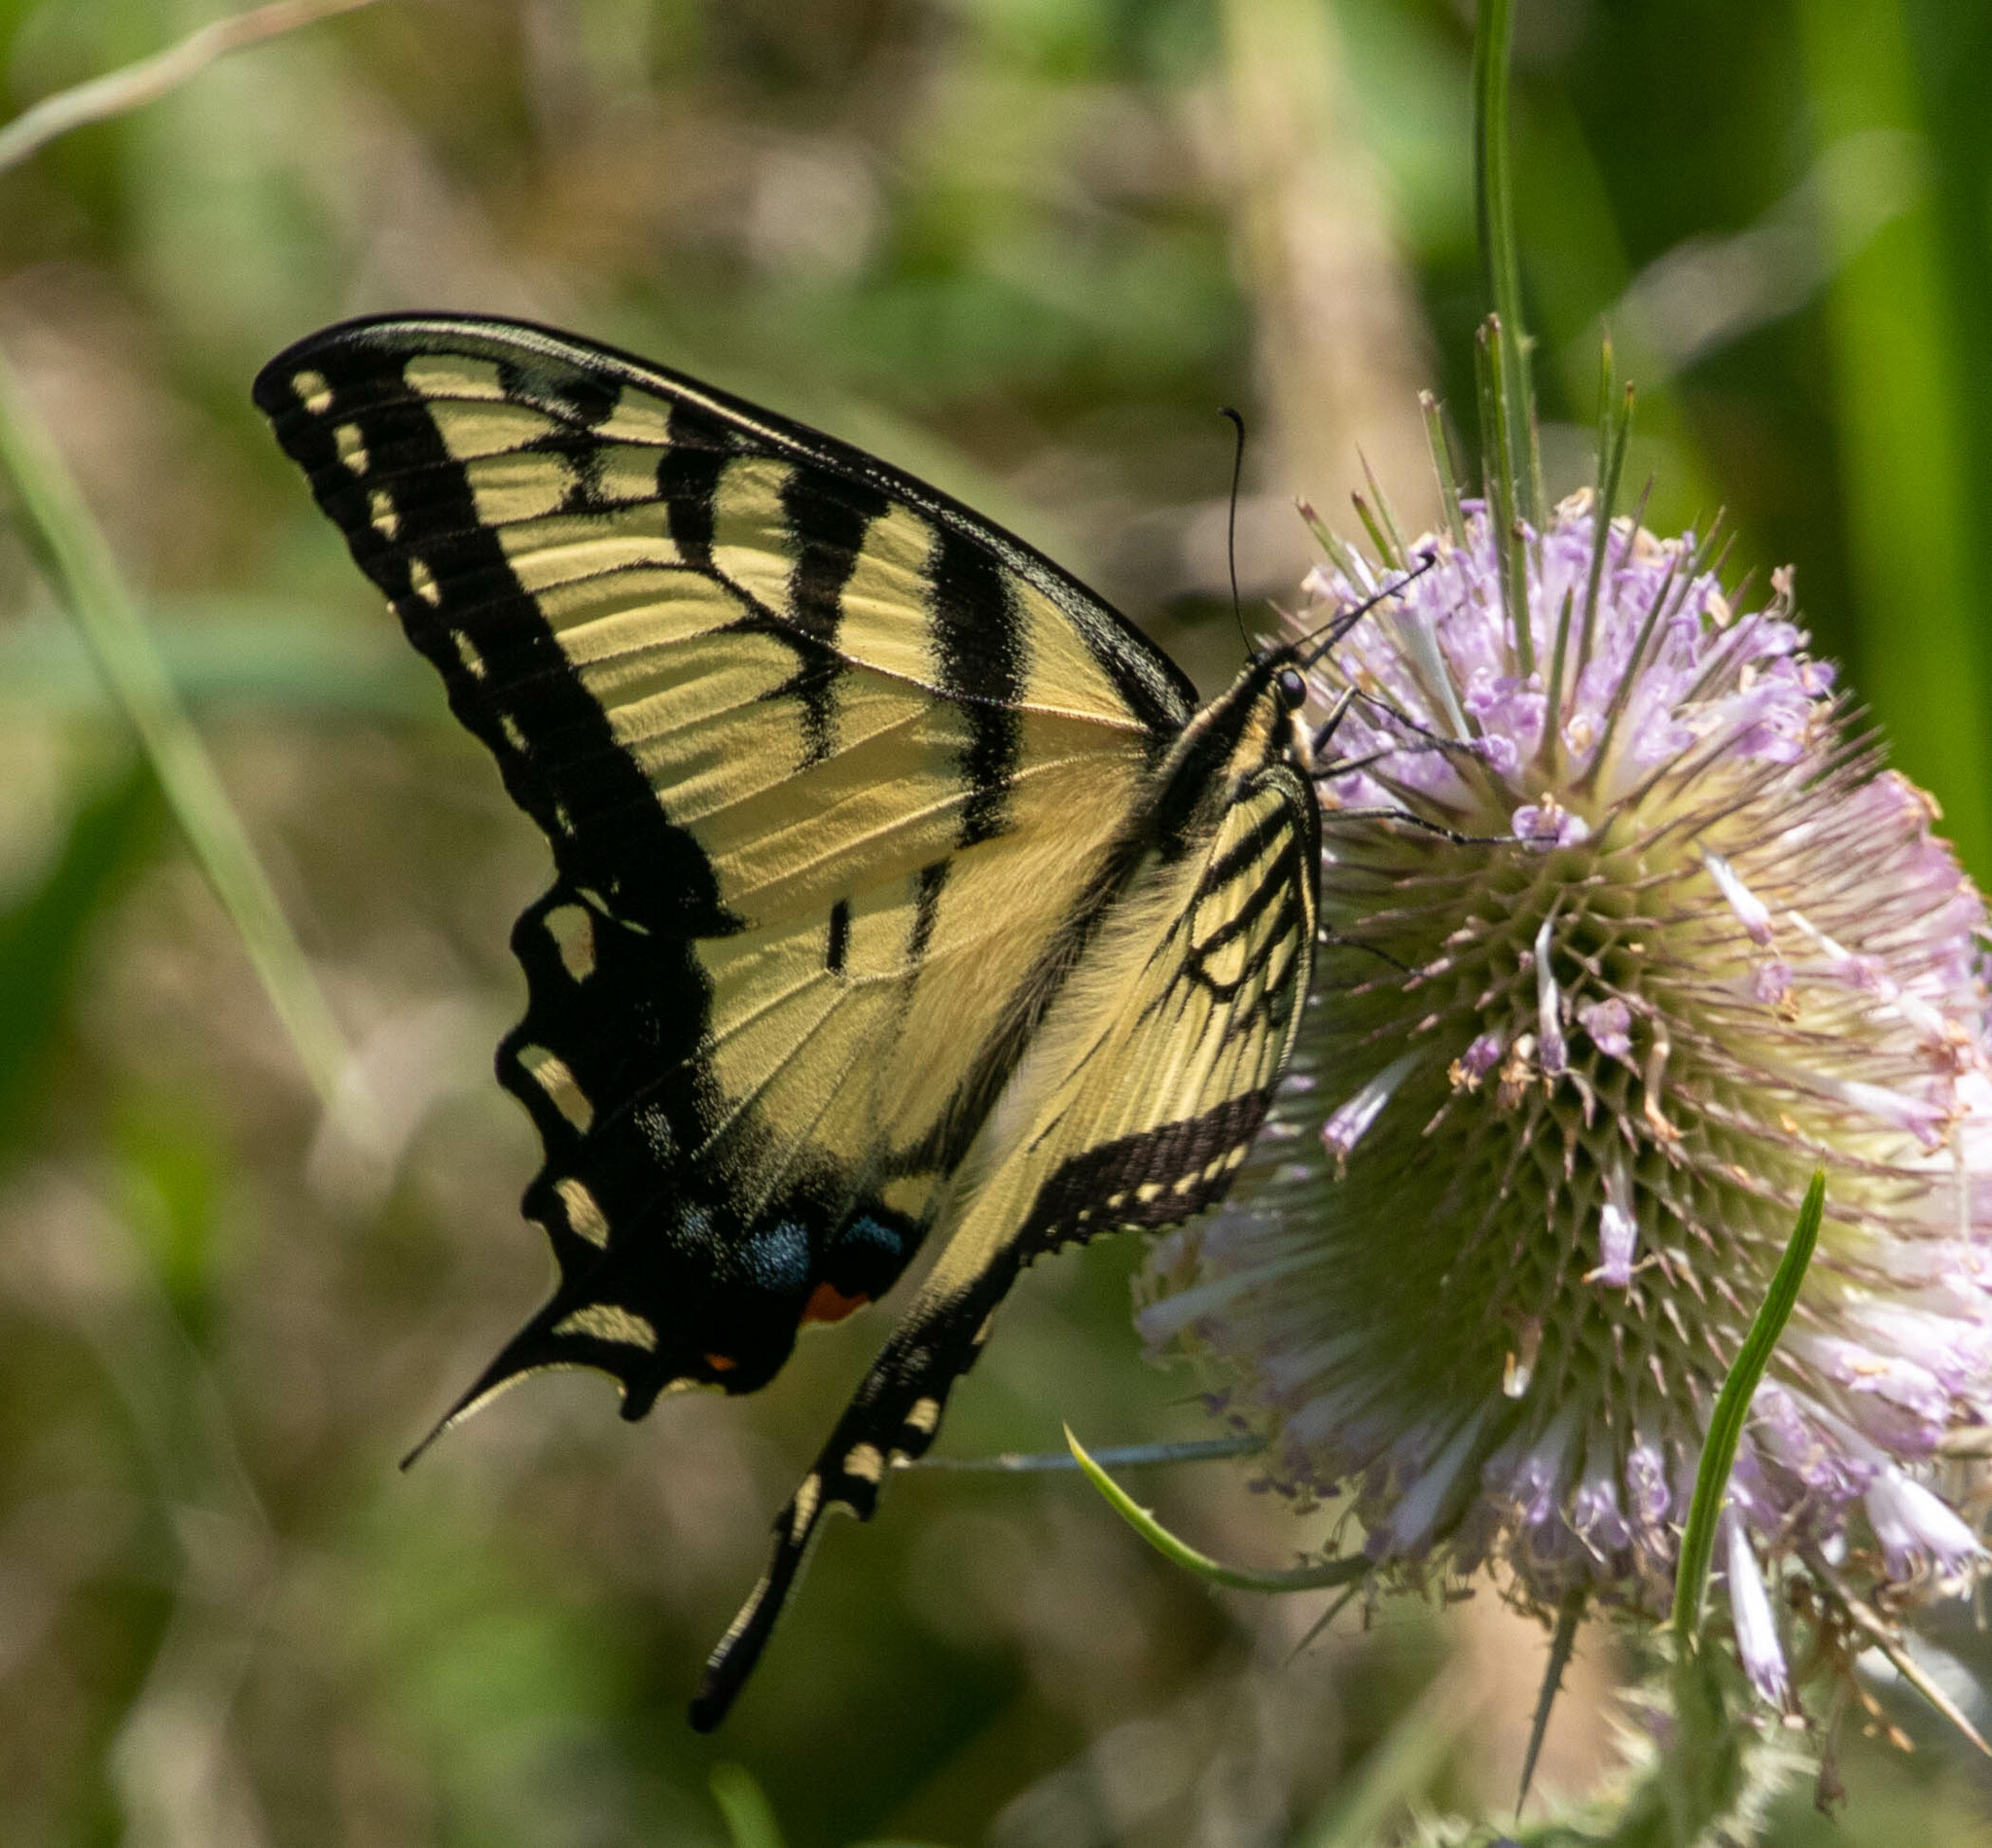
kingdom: Animalia
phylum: Arthropoda
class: Insecta
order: Lepidoptera
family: Papilionidae
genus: Papilio
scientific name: Papilio glaucus
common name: Tiger swallowtail
